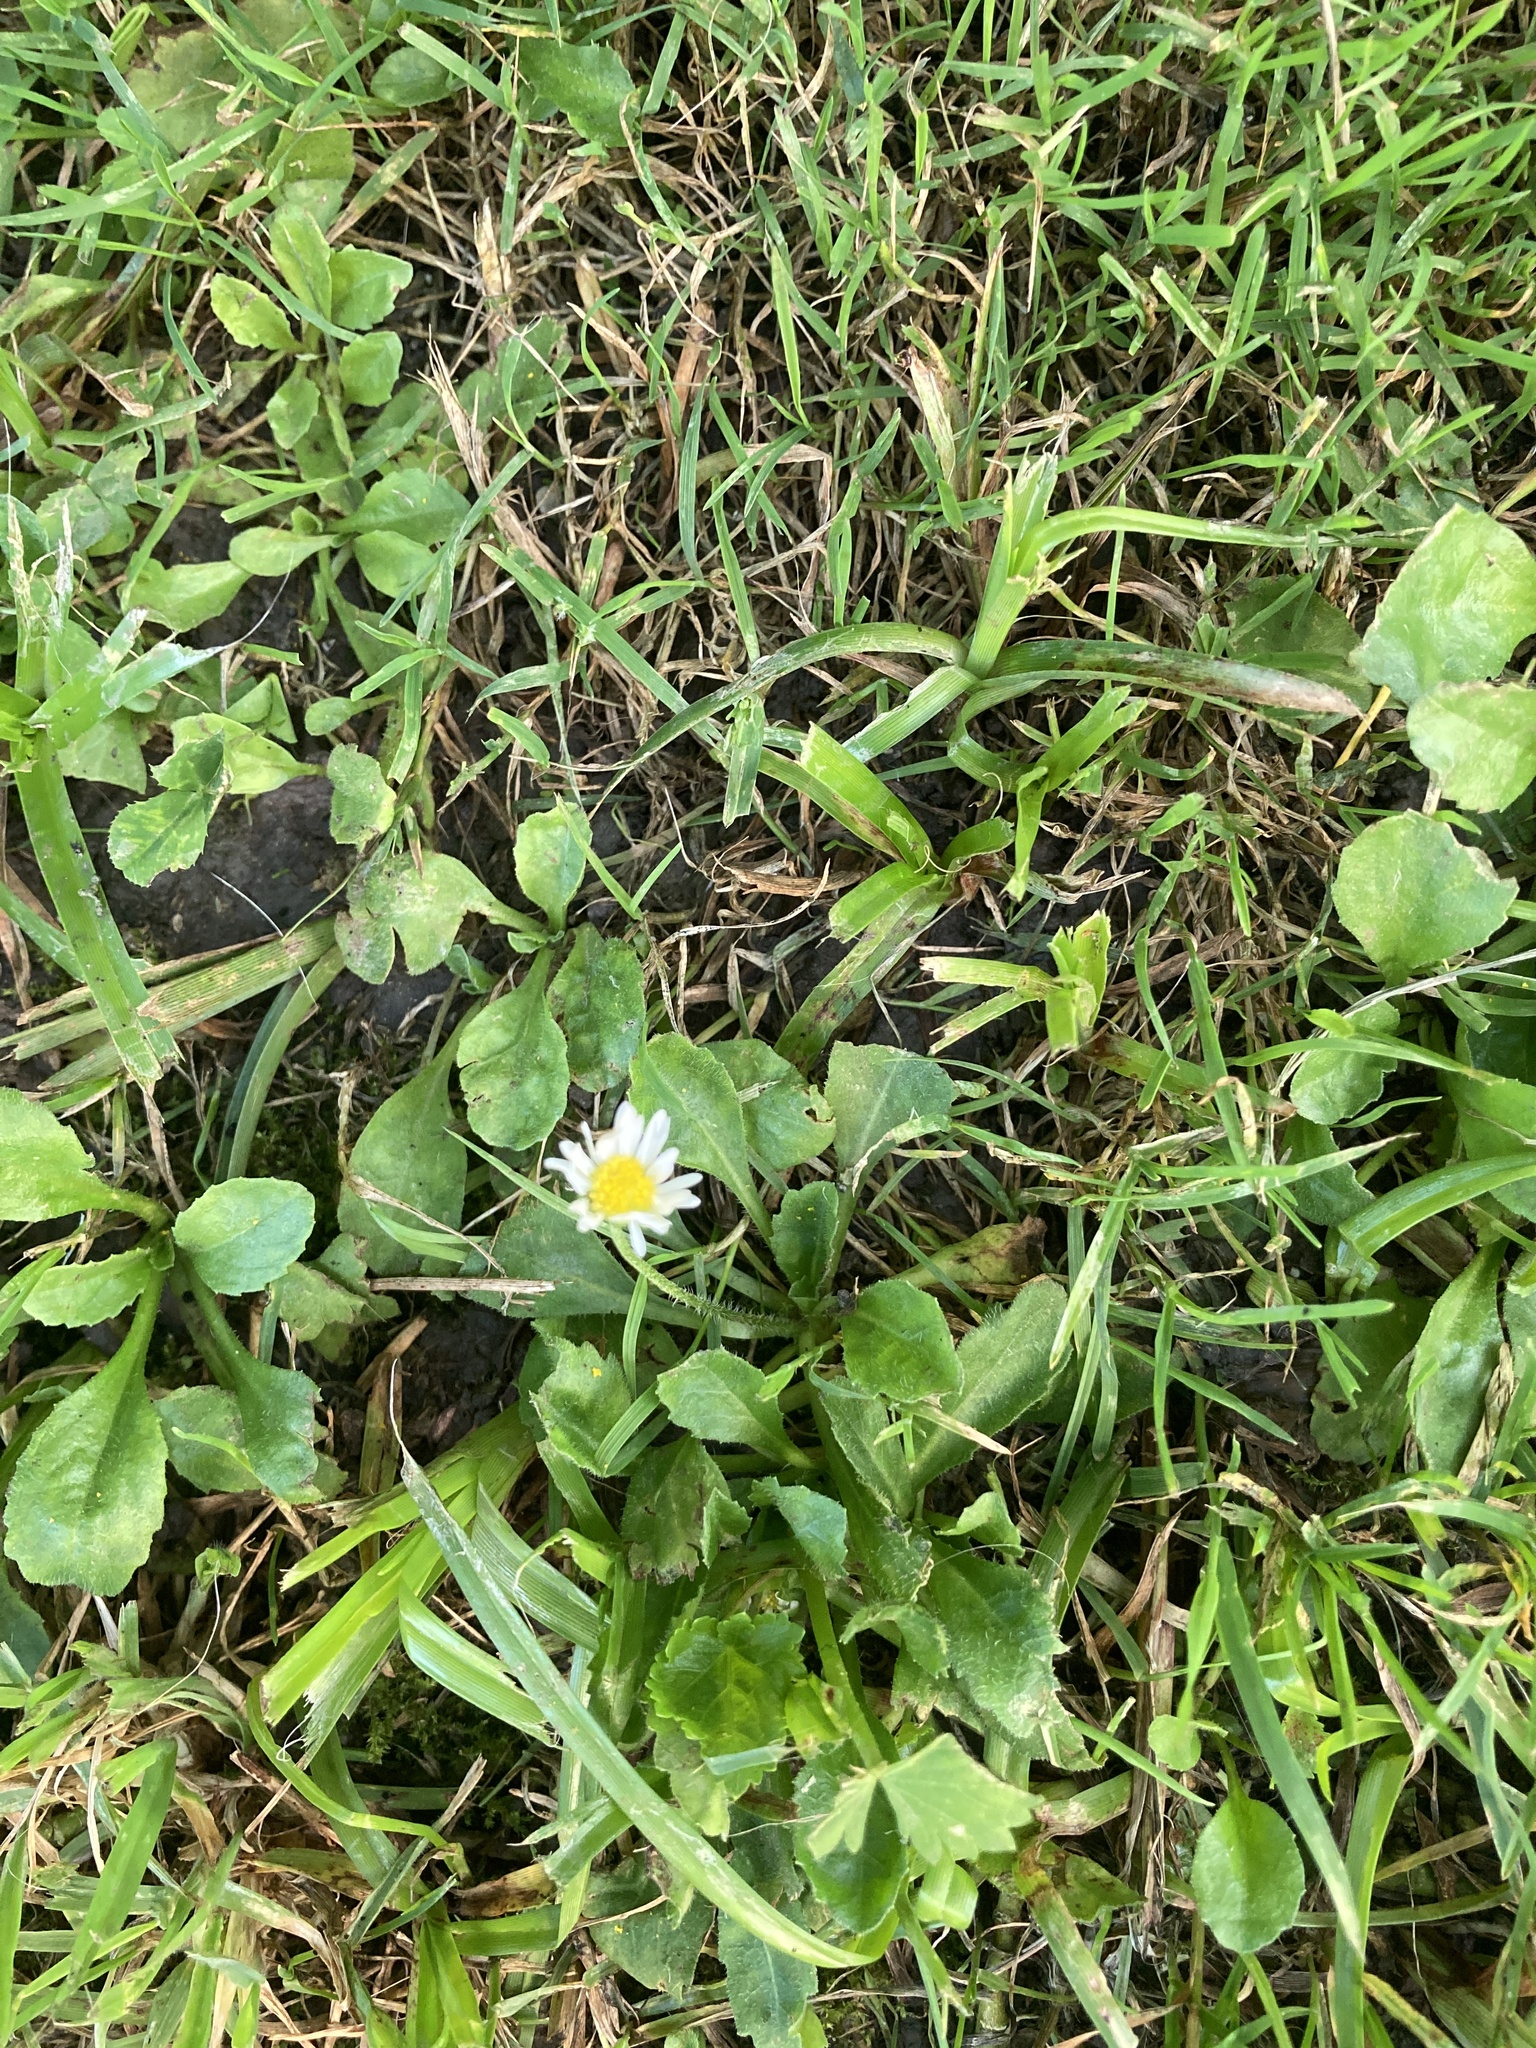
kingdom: Plantae
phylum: Tracheophyta
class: Magnoliopsida
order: Asterales
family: Asteraceae
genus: Bellis
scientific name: Bellis perennis
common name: Lawndaisy
